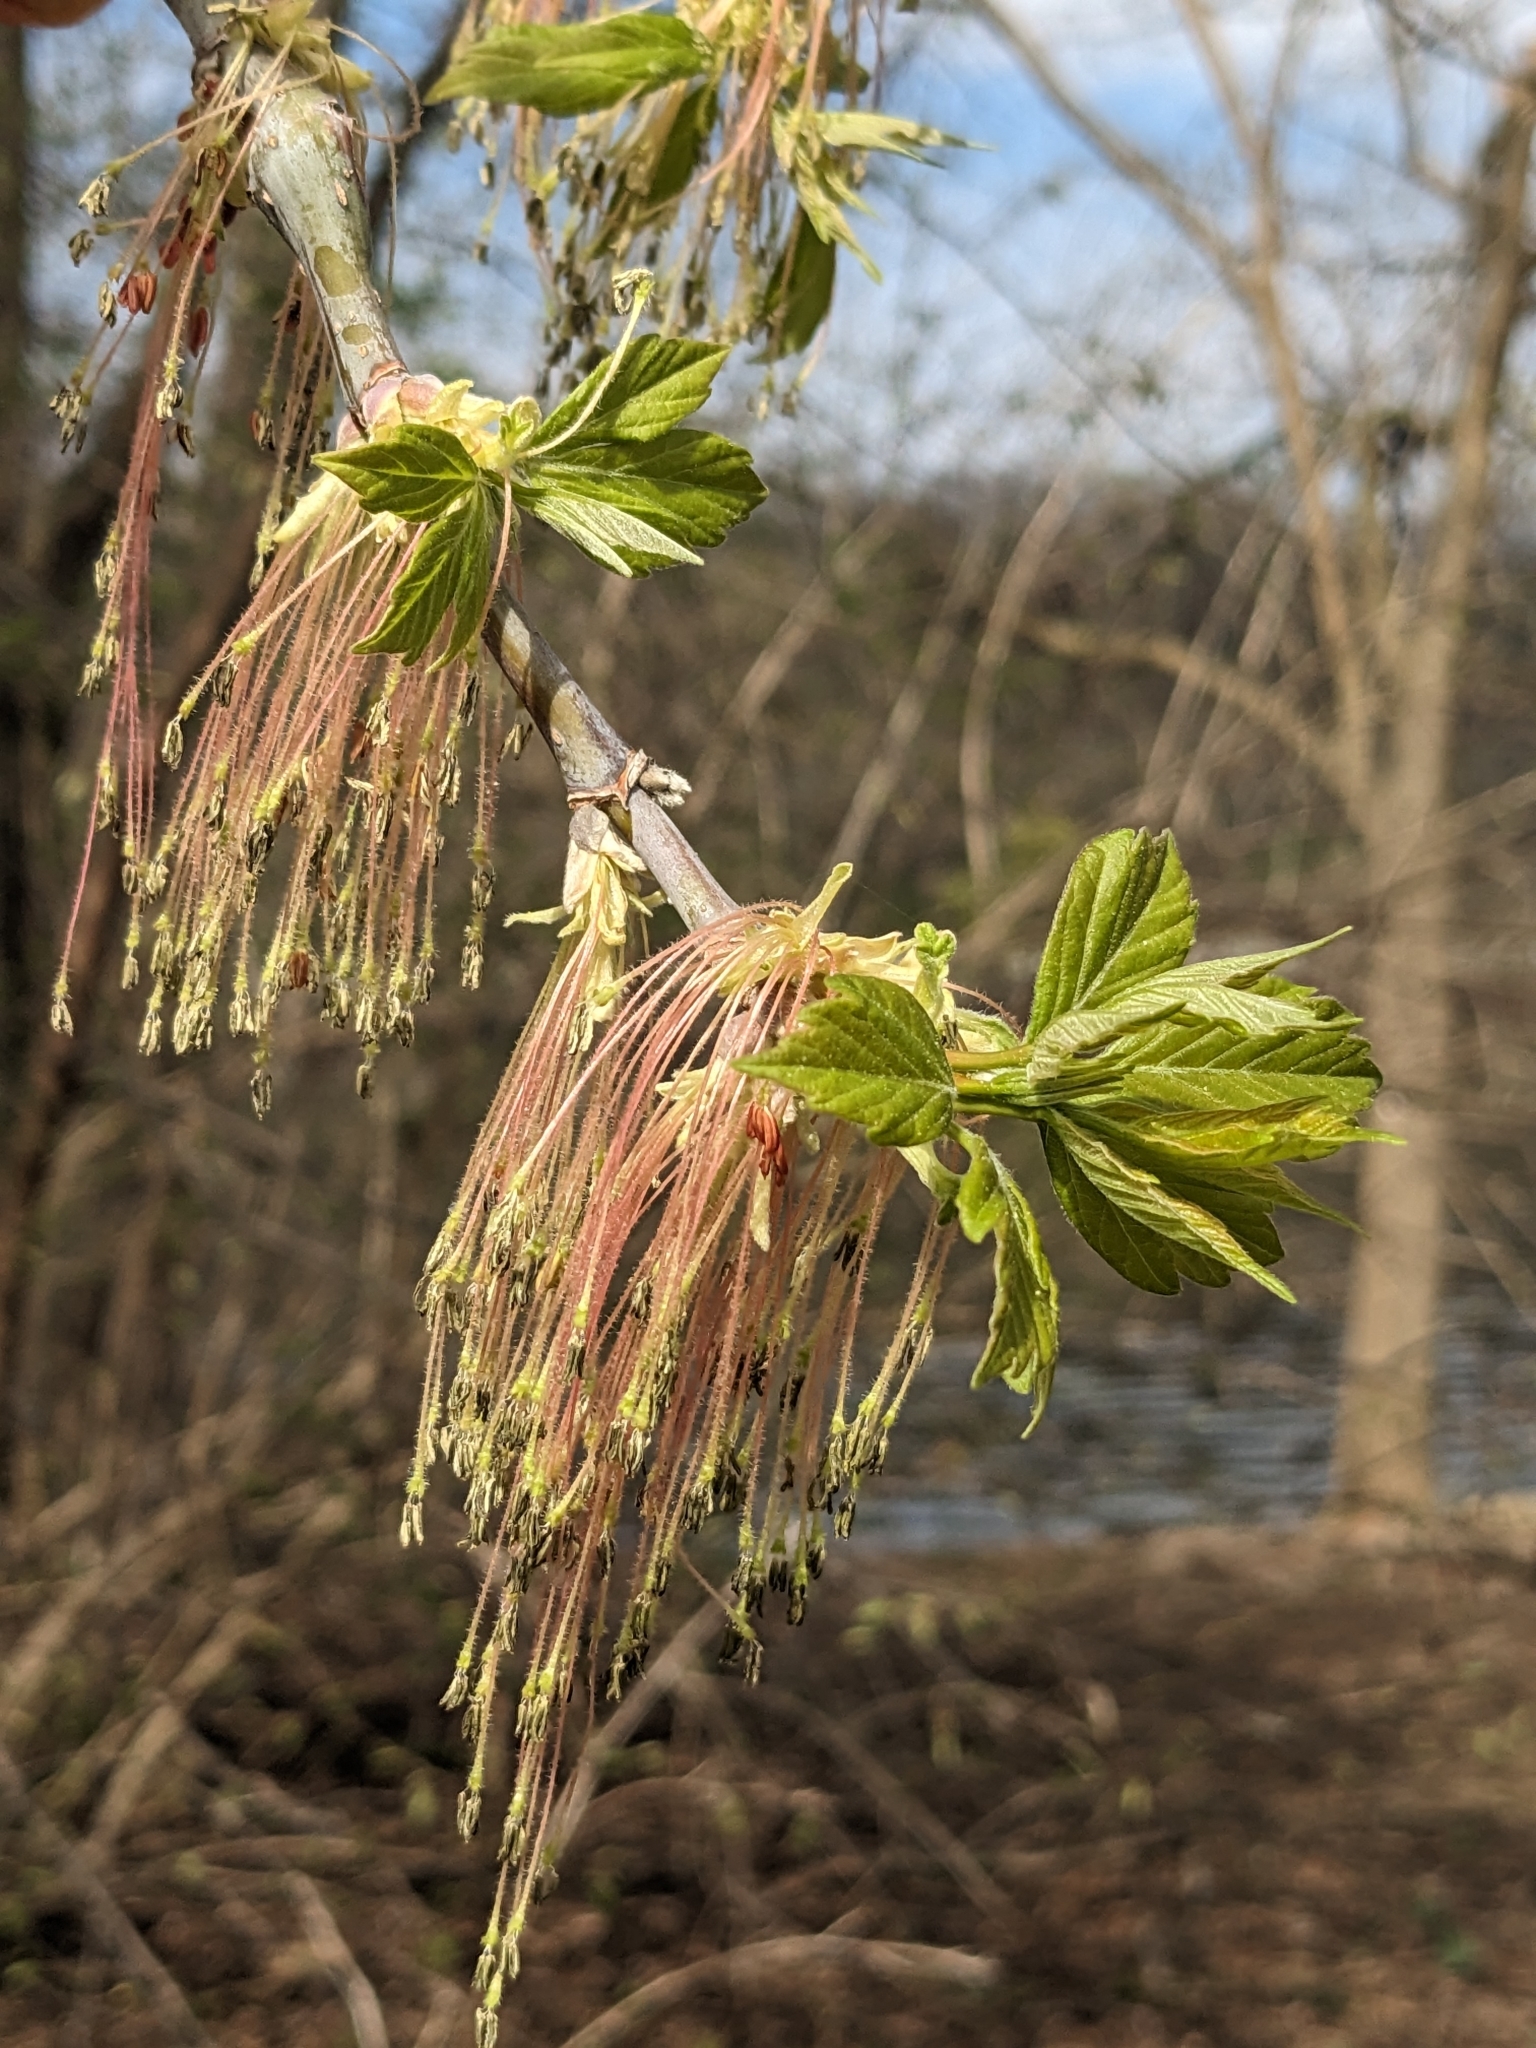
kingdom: Plantae
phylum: Tracheophyta
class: Magnoliopsida
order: Sapindales
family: Sapindaceae
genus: Acer
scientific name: Acer negundo
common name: Ashleaf maple
